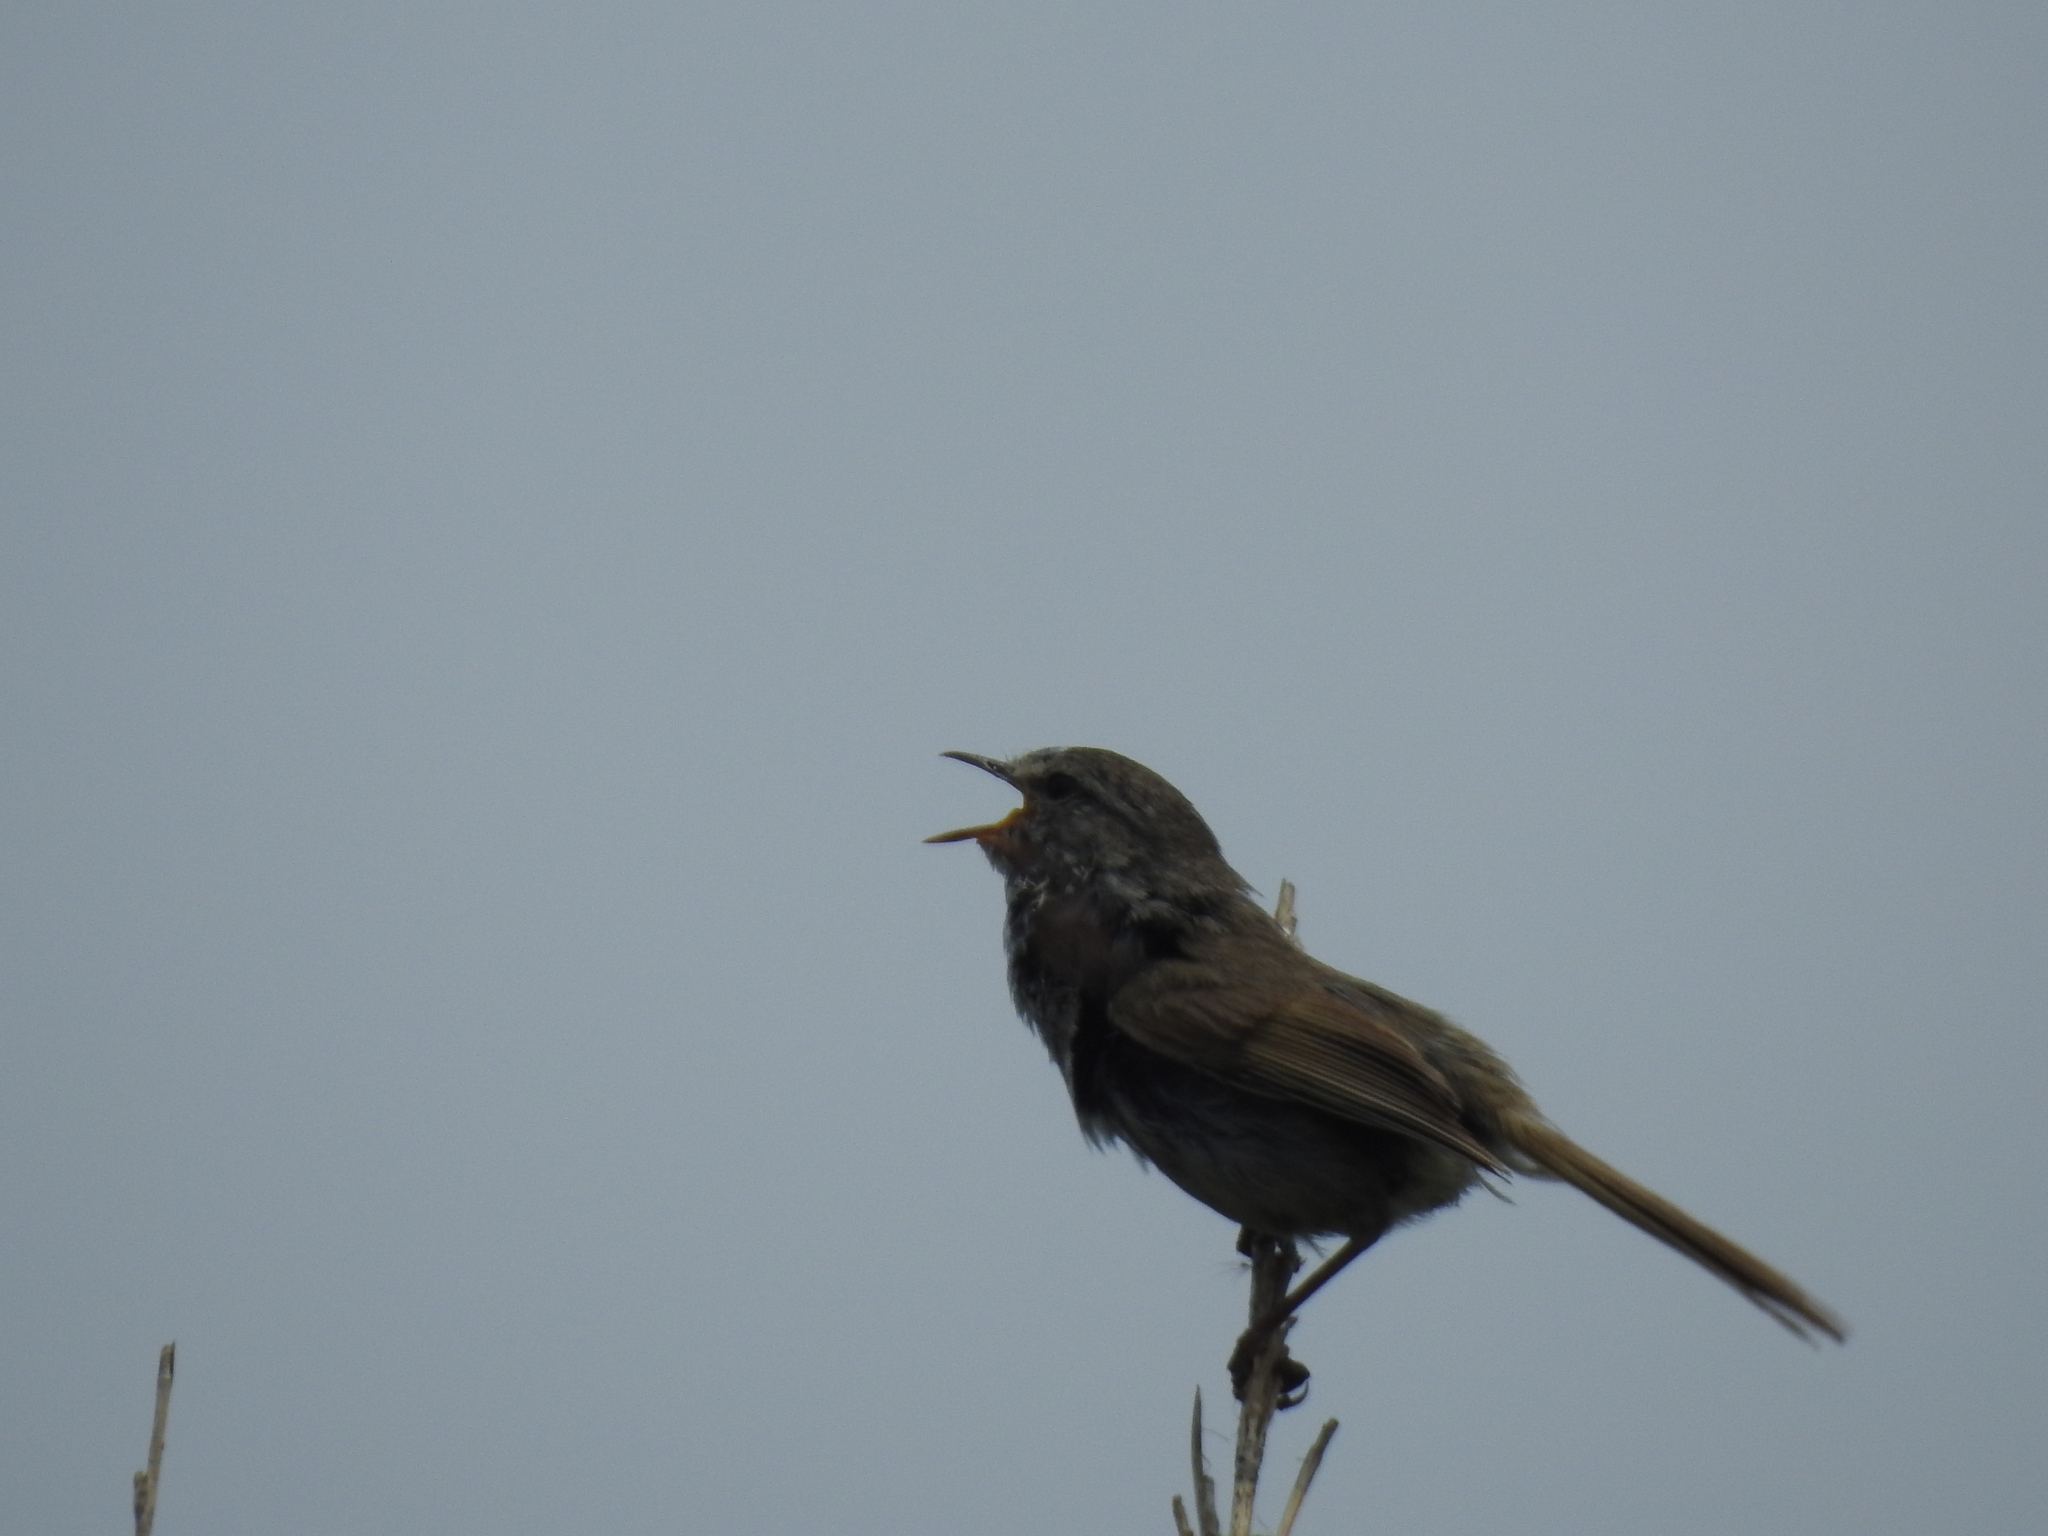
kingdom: Animalia
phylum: Chordata
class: Aves
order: Passeriformes
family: Cettiidae
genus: Horornis
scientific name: Horornis diphone
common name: Japanese bush warbler
